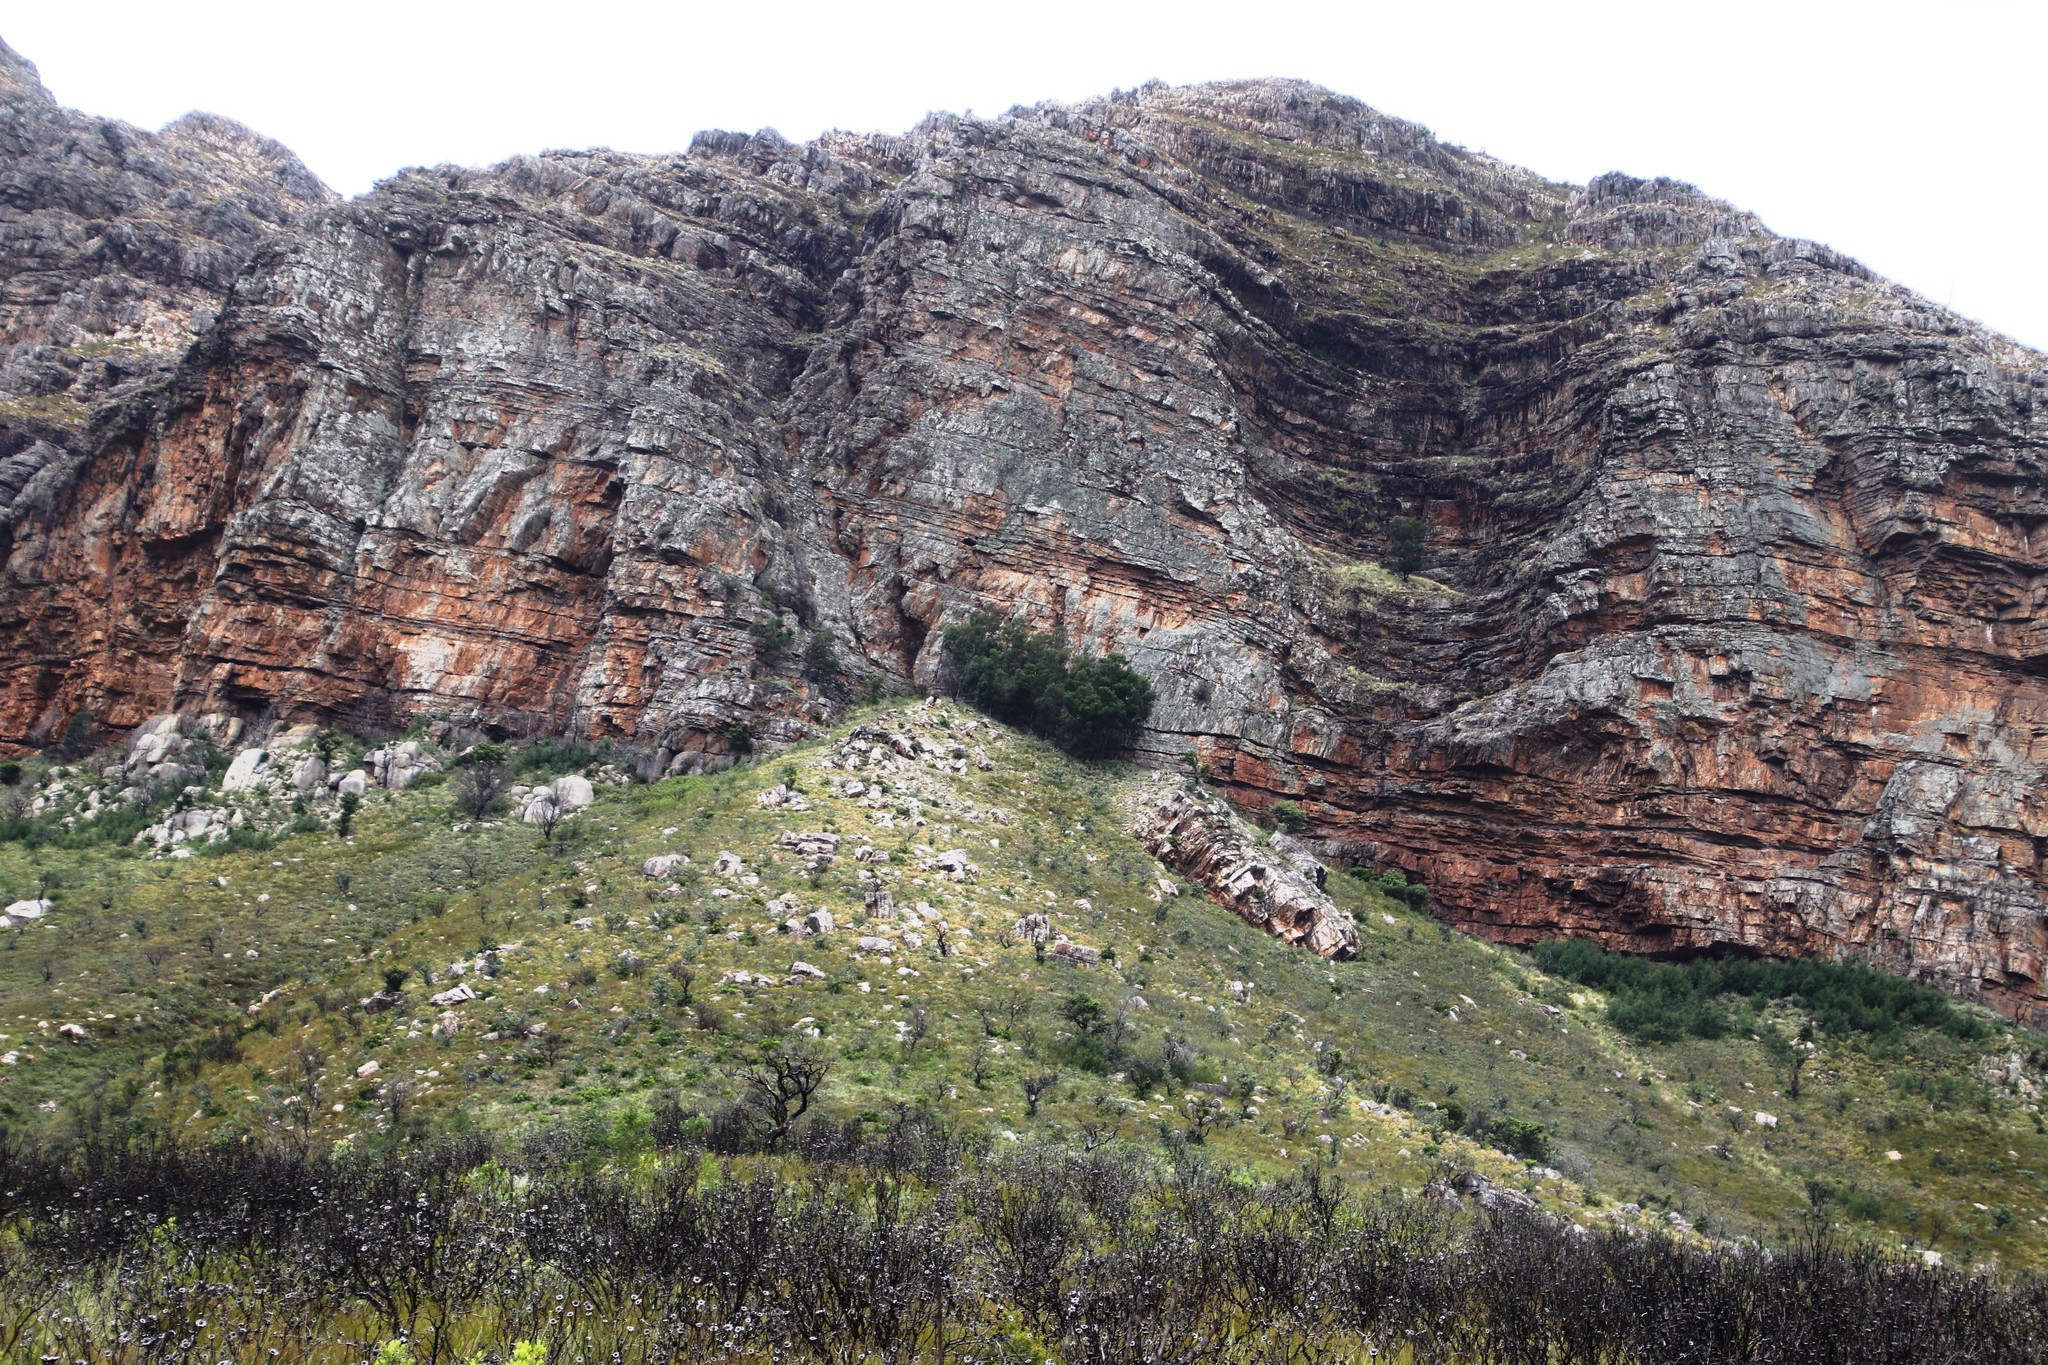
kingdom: Plantae
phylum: Tracheophyta
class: Magnoliopsida
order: Fabales
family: Fabaceae
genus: Acacia
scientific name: Acacia mearnsii
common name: Black wattle
